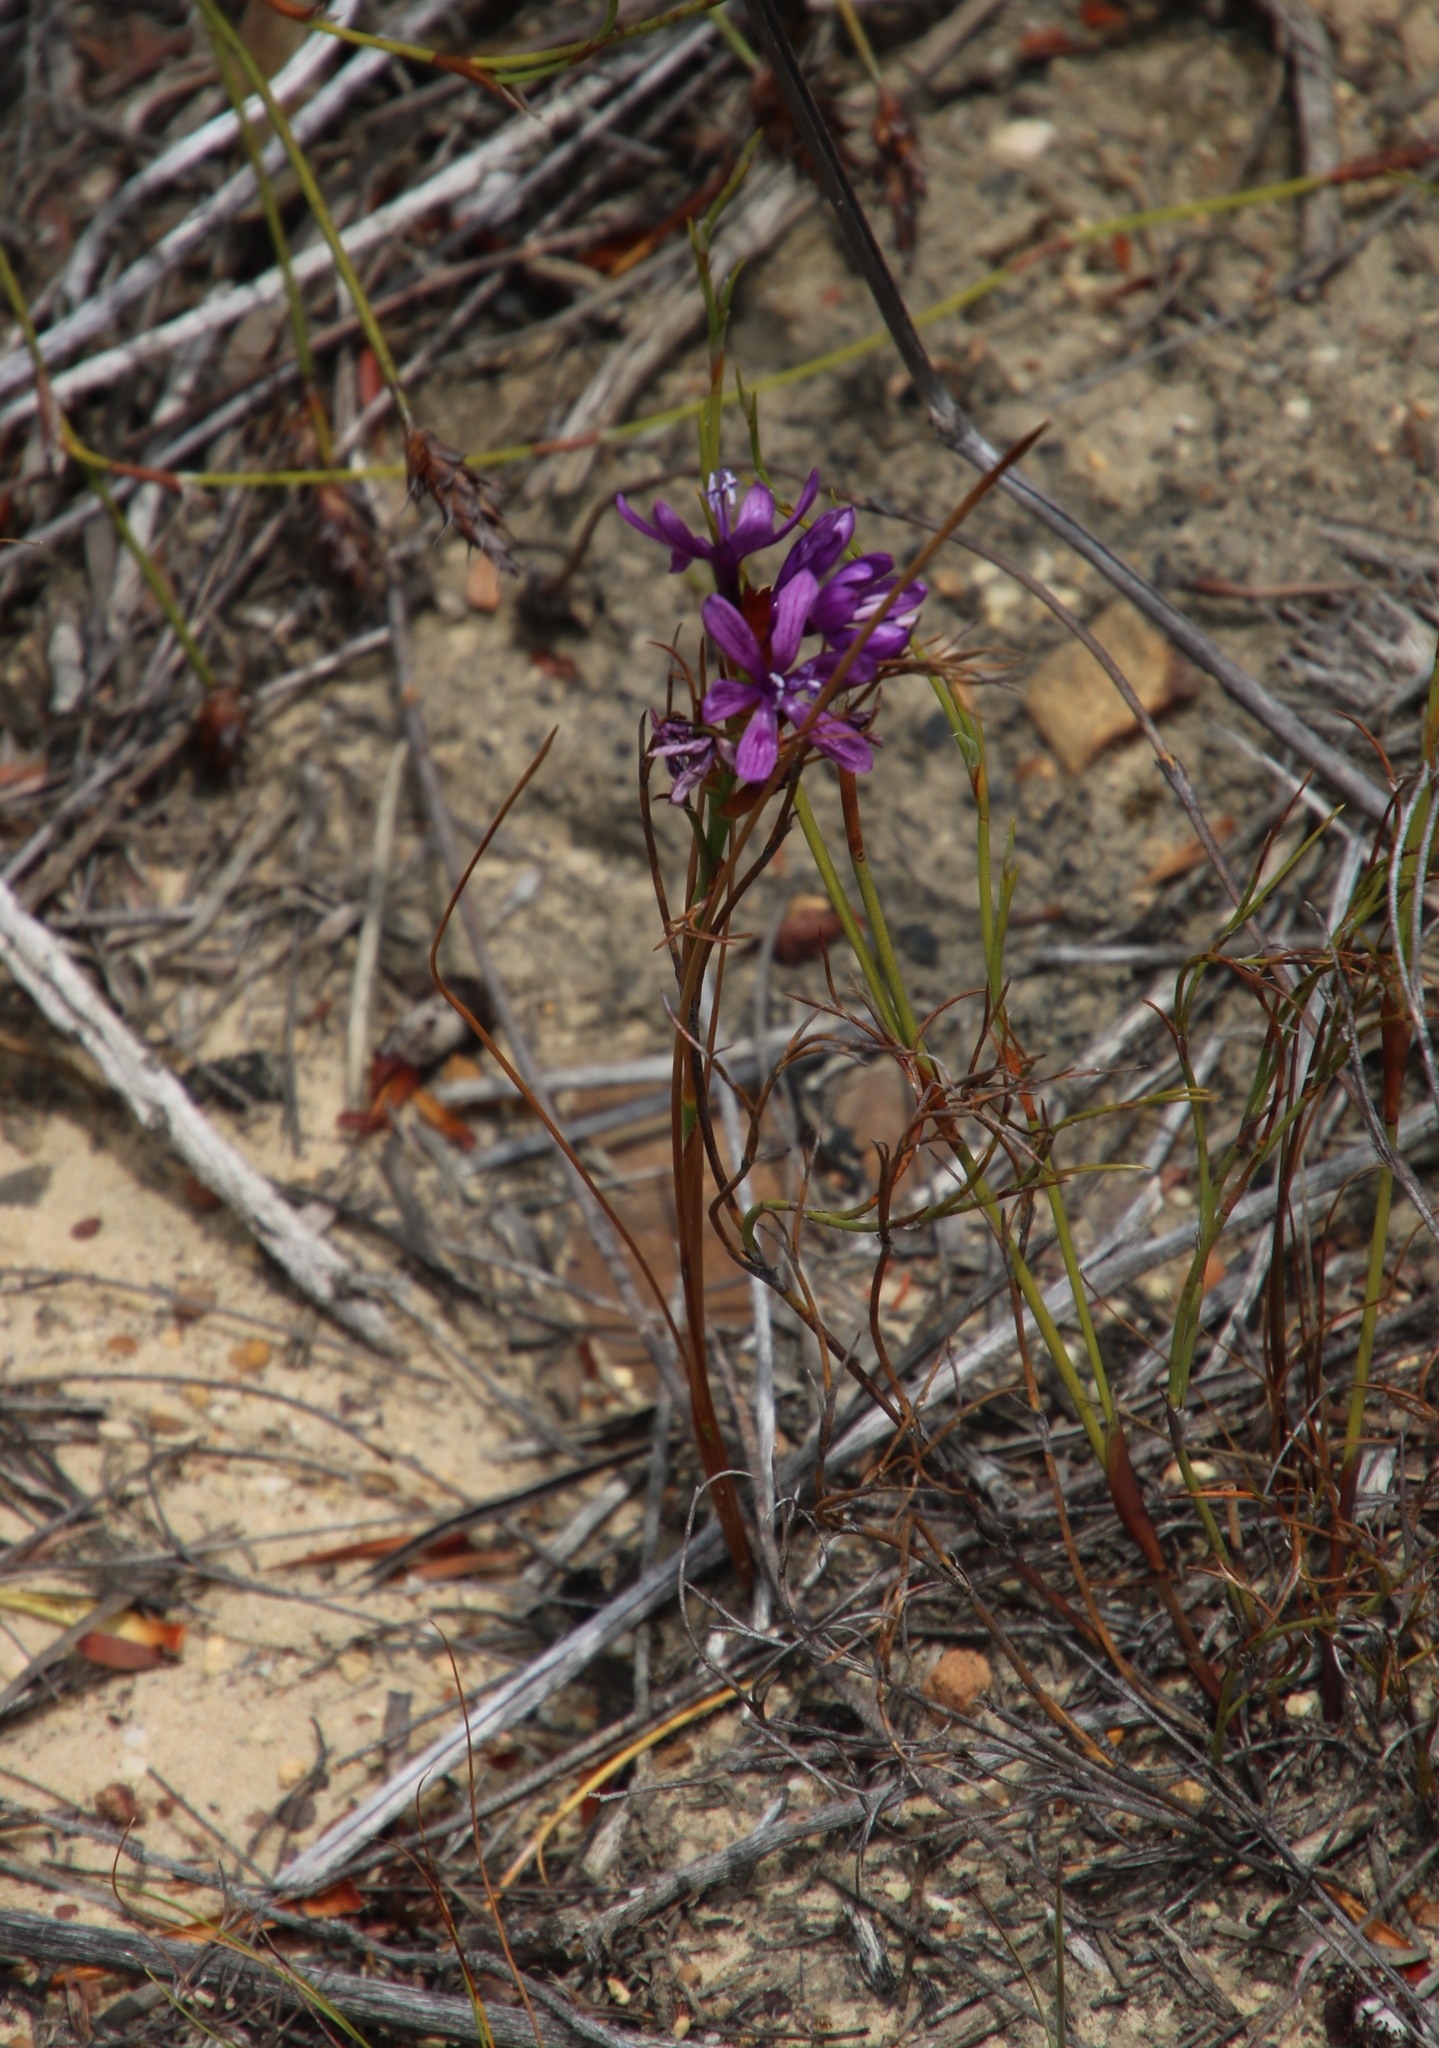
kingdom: Plantae
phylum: Tracheophyta
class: Liliopsida
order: Asparagales
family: Iridaceae
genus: Thereianthus
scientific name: Thereianthus bracteolatus
